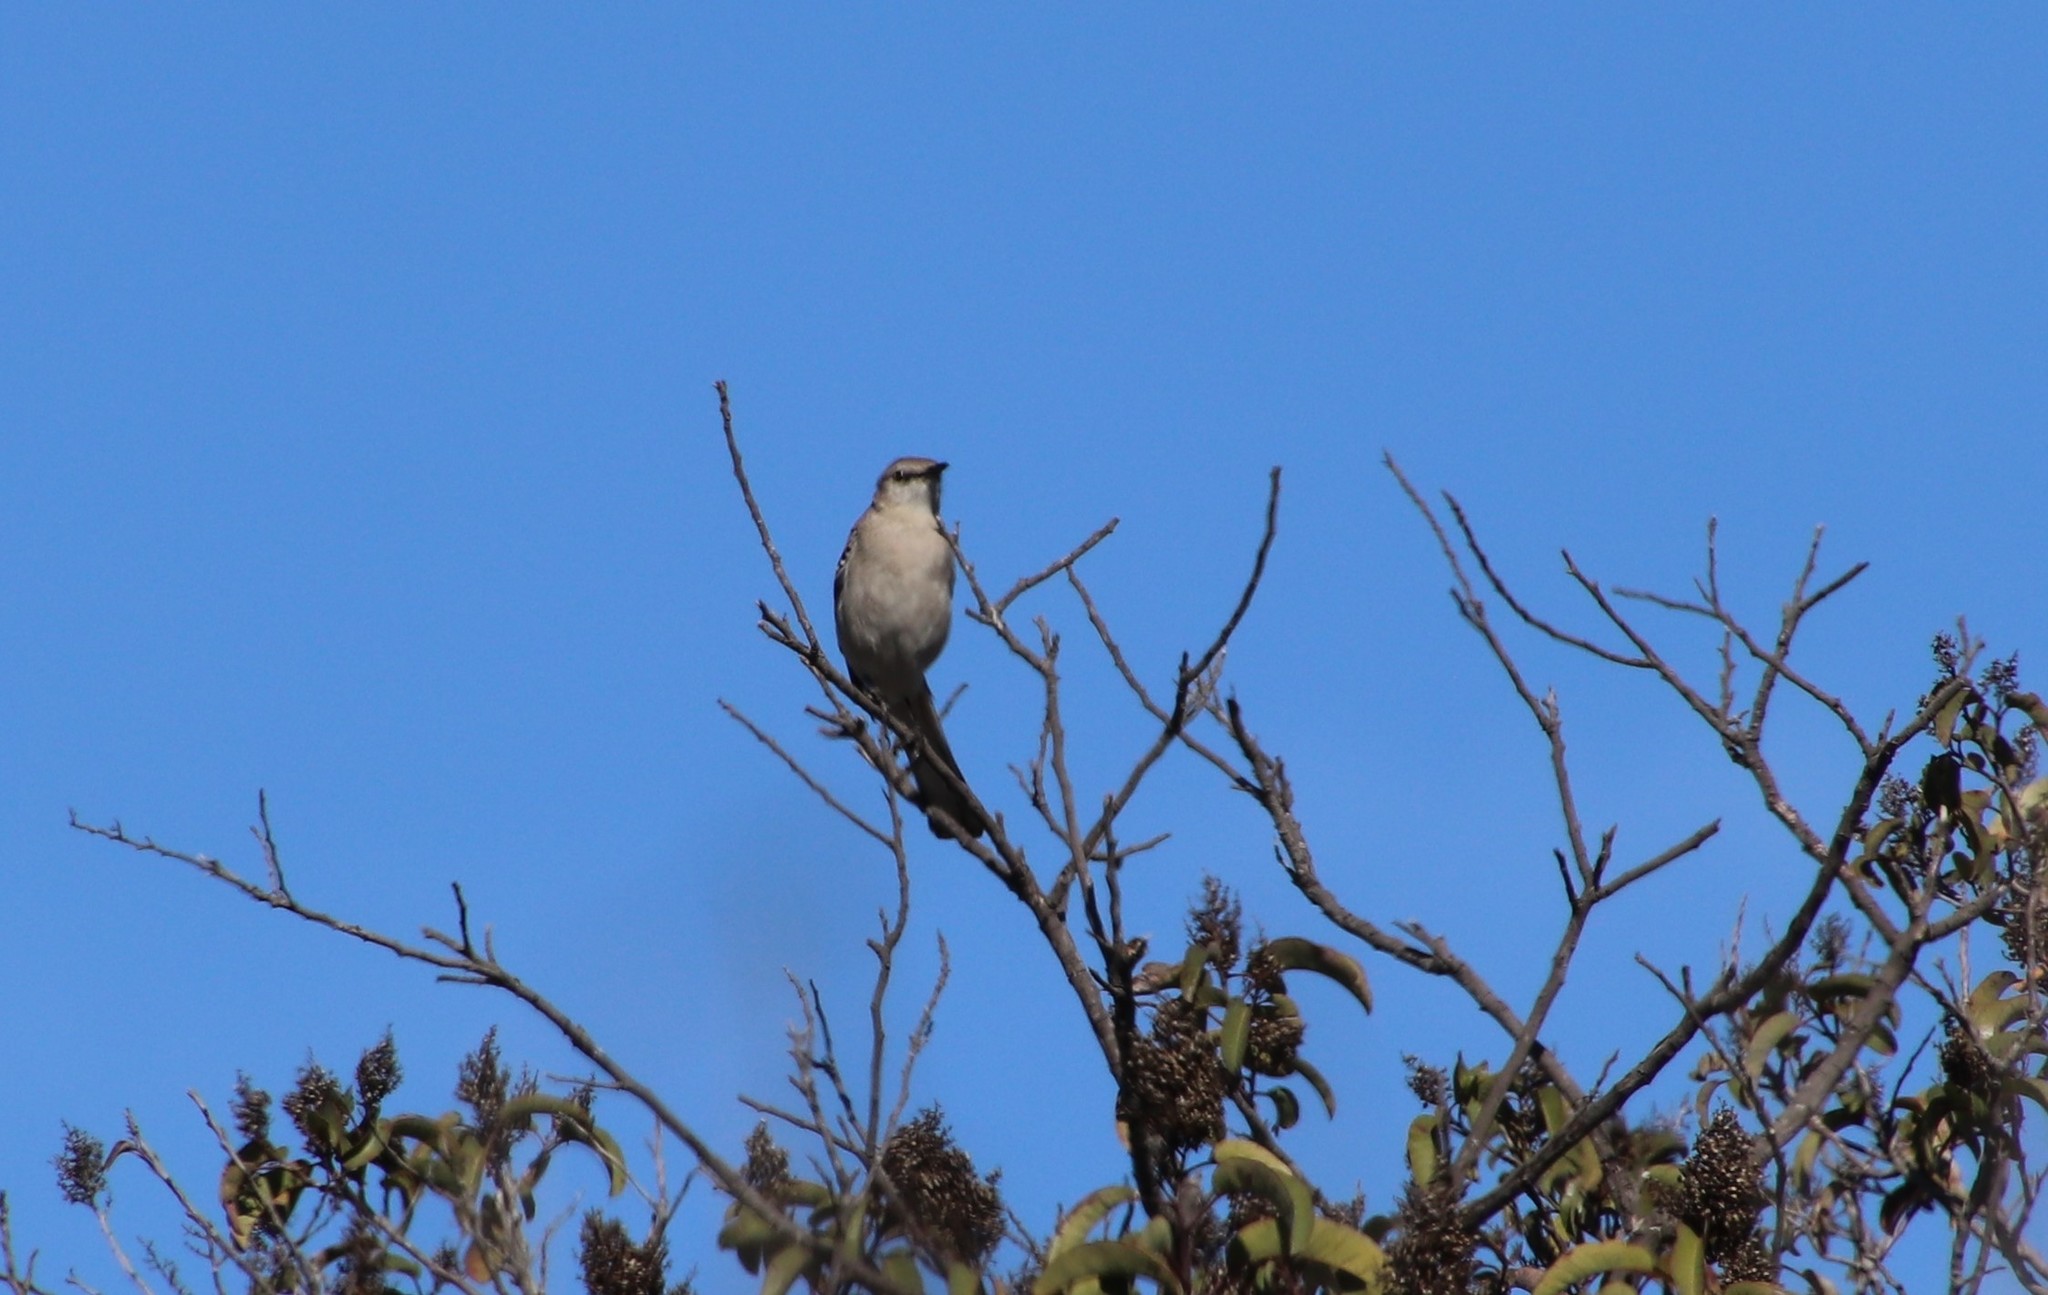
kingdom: Animalia
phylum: Chordata
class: Aves
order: Passeriformes
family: Mimidae
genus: Mimus
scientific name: Mimus polyglottos
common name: Northern mockingbird
